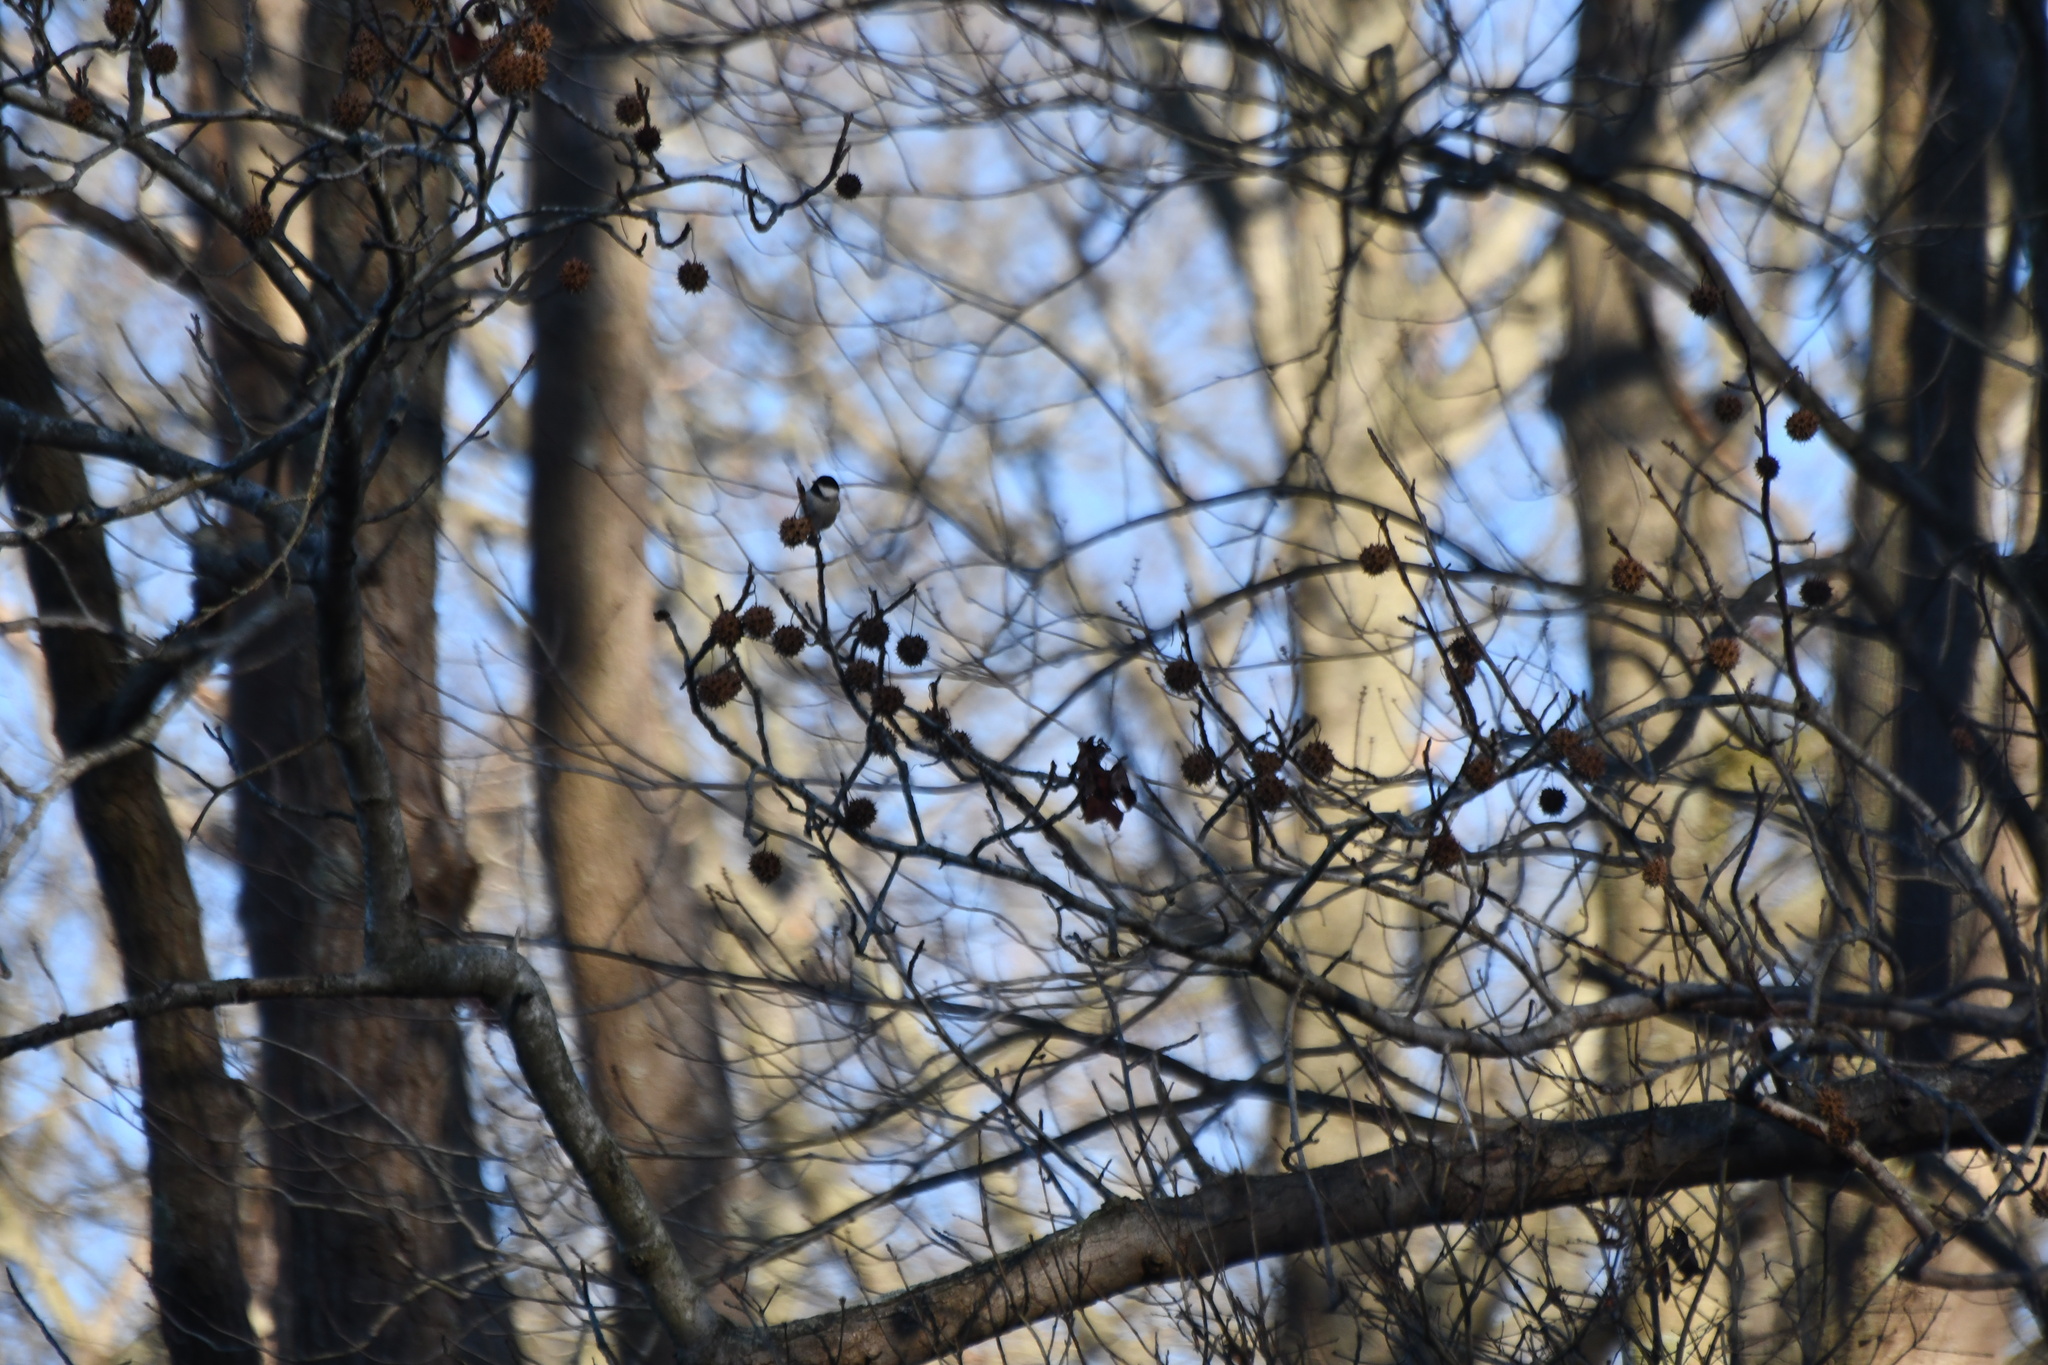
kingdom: Animalia
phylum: Chordata
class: Aves
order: Passeriformes
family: Paridae
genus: Poecile
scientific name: Poecile carolinensis
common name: Carolina chickadee
